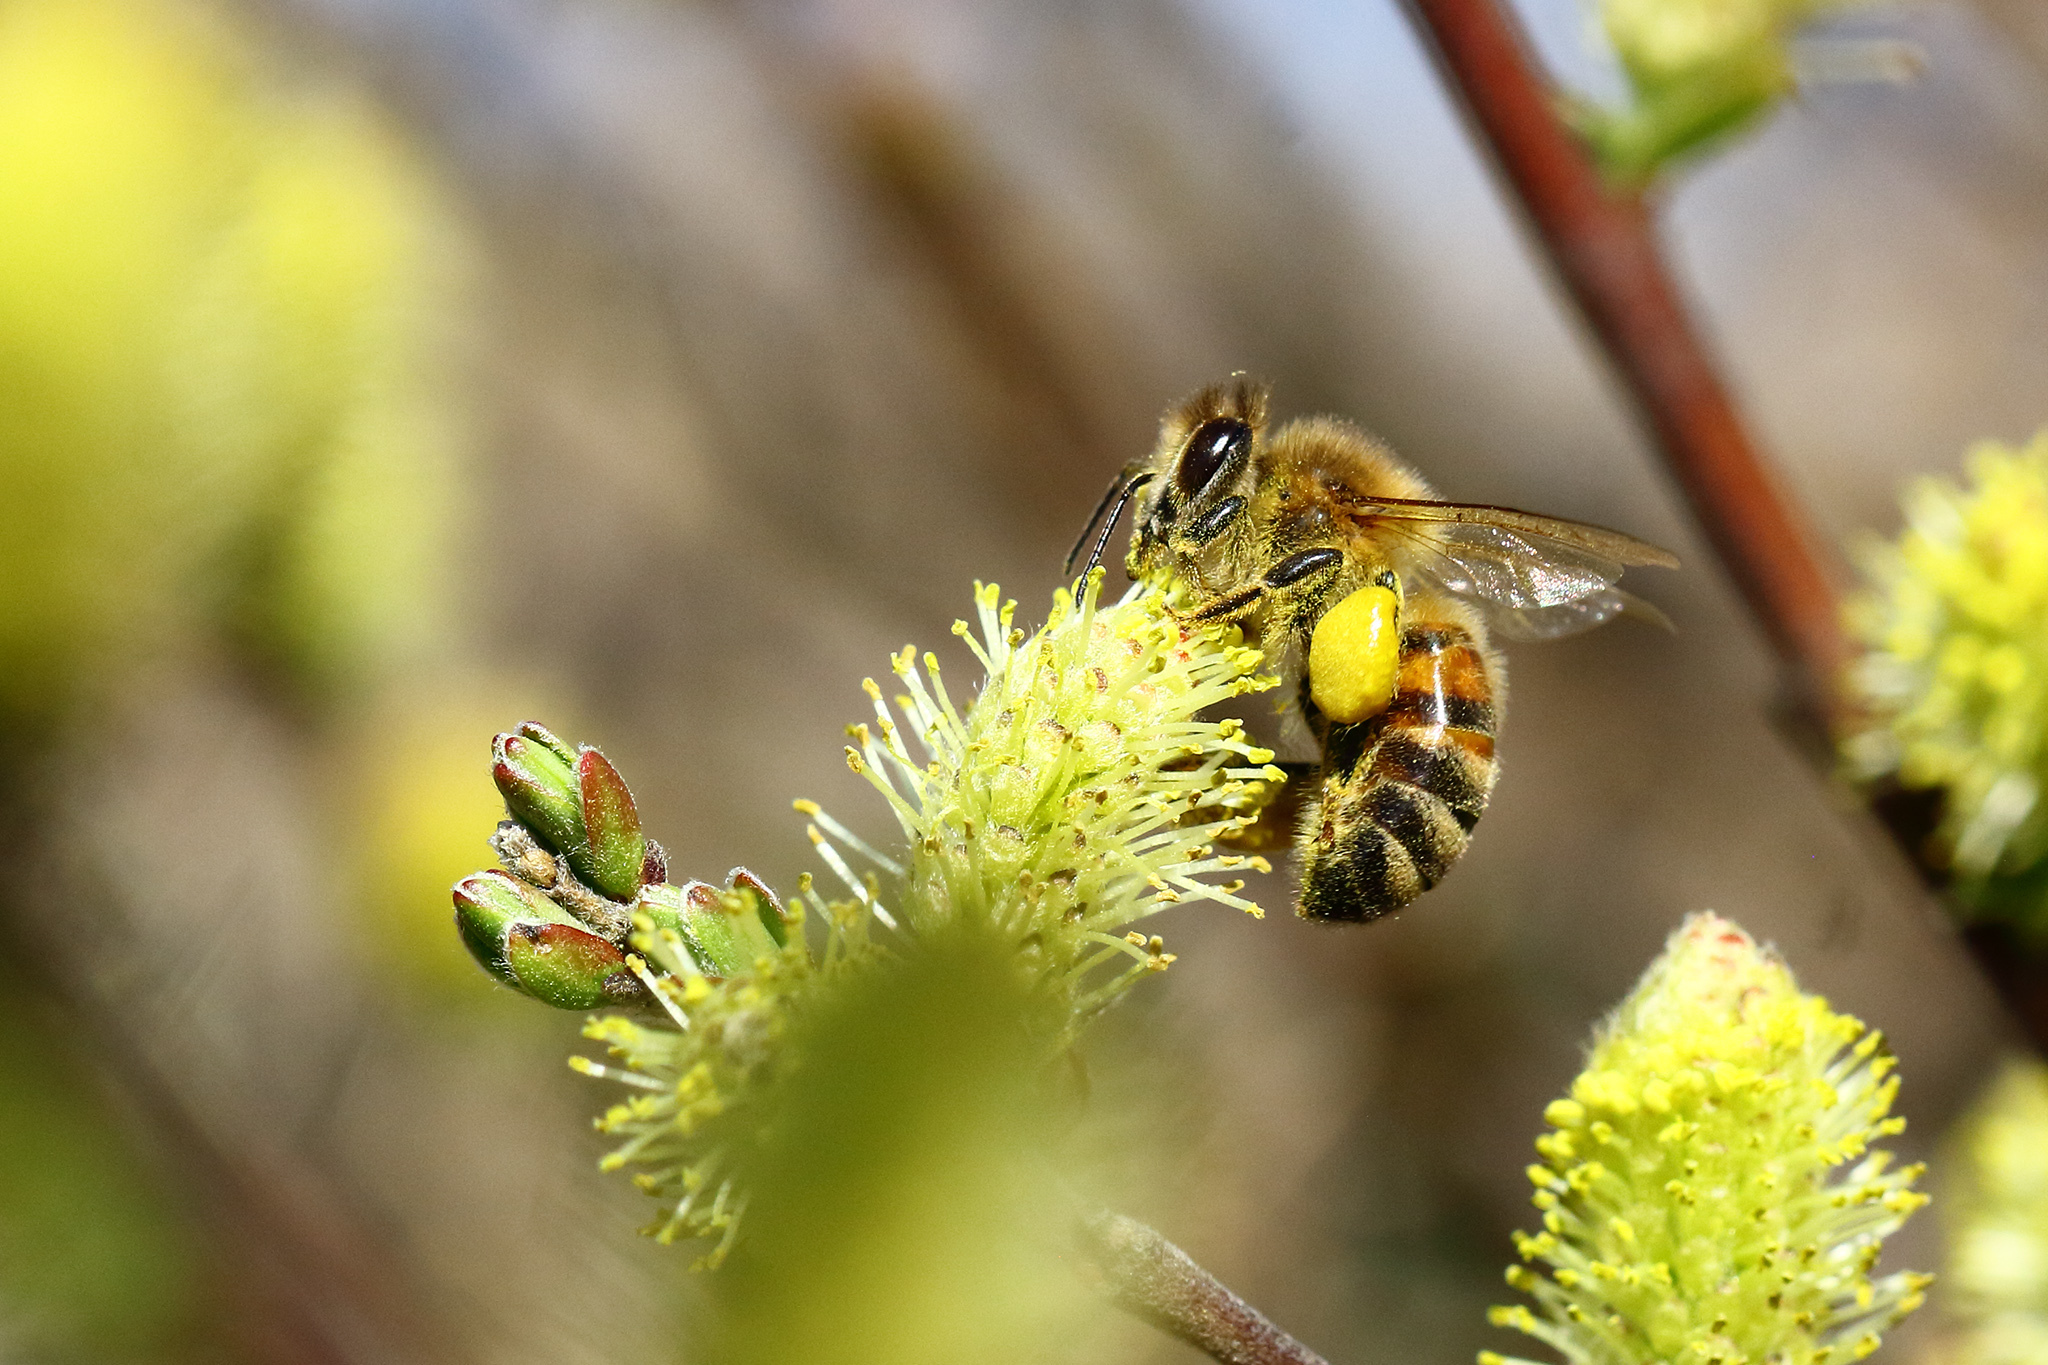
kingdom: Animalia
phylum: Arthropoda
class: Insecta
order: Hymenoptera
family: Apidae
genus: Apis
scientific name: Apis mellifera
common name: Honey bee
